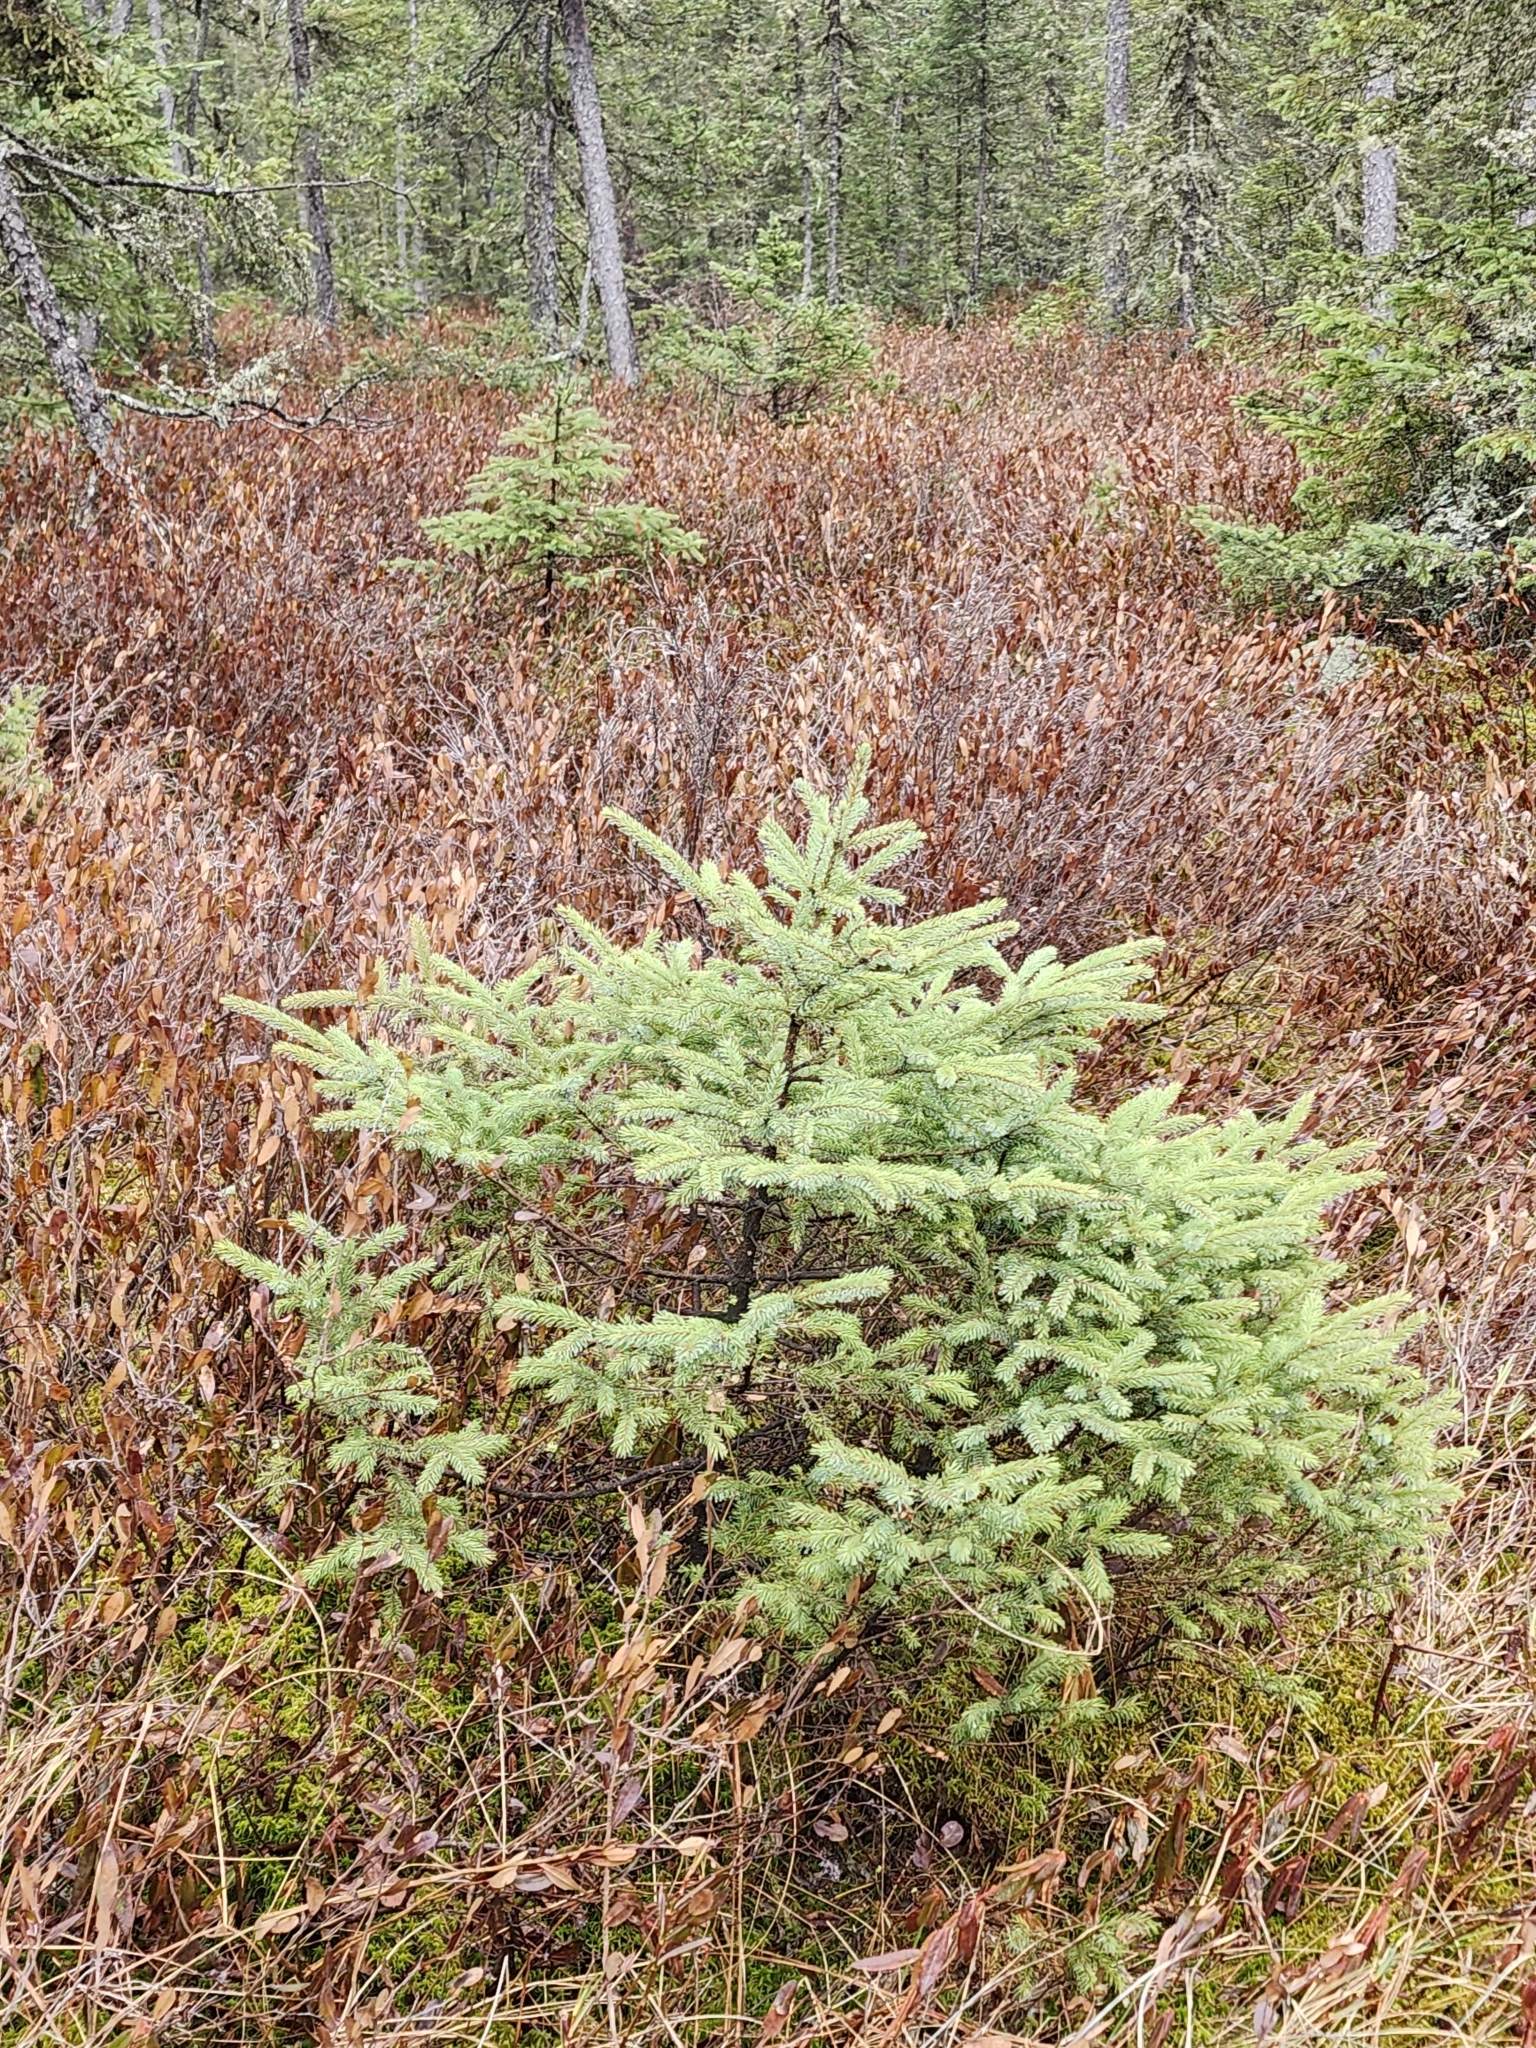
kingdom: Plantae
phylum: Tracheophyta
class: Pinopsida
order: Pinales
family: Pinaceae
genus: Picea
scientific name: Picea mariana
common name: Black spruce
